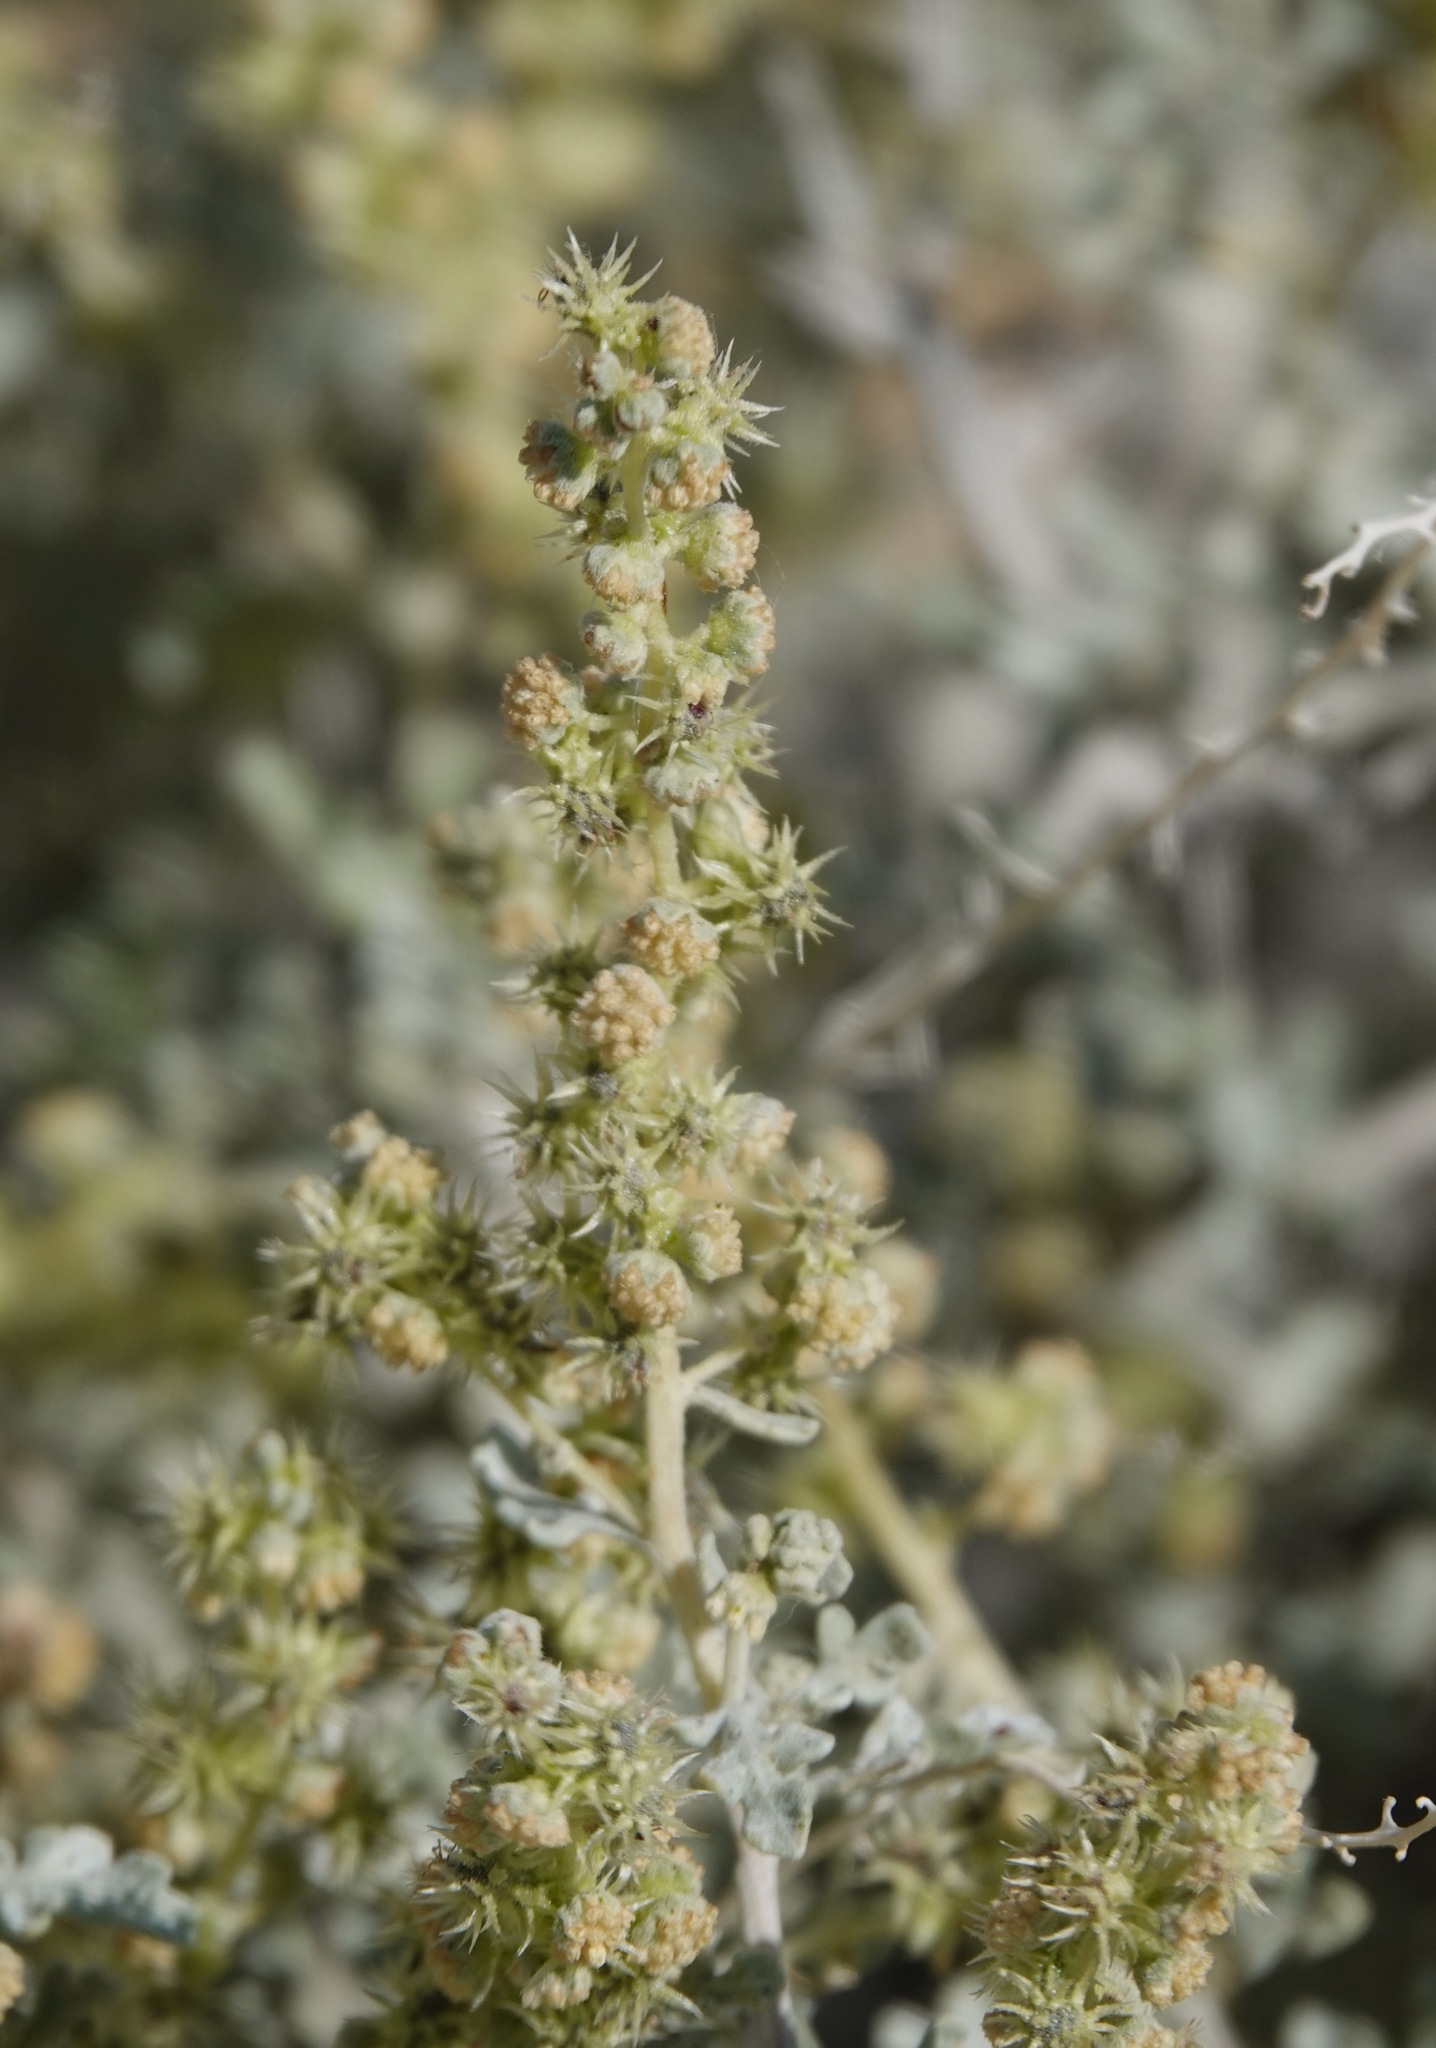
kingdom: Plantae
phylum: Tracheophyta
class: Magnoliopsida
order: Asterales
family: Asteraceae
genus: Ambrosia
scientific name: Ambrosia dumosa
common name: Bur-sage
